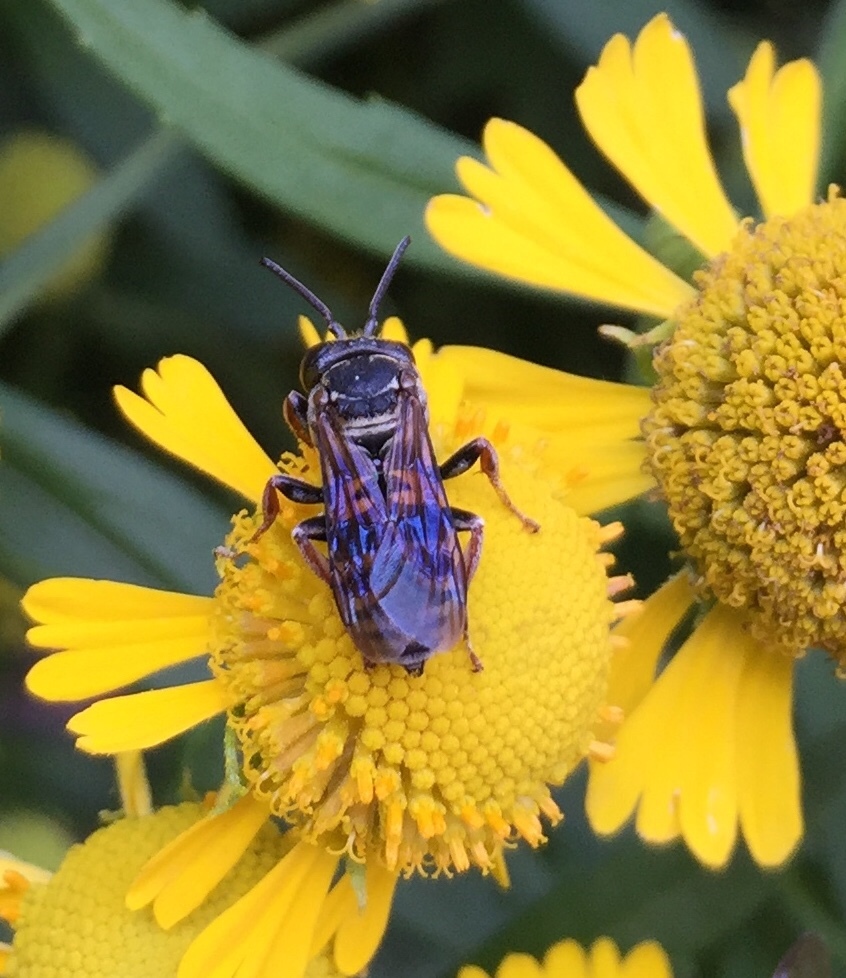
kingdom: Animalia
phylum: Arthropoda
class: Insecta
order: Hymenoptera
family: Apidae
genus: Triepeolus
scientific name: Triepeolus lunatus
